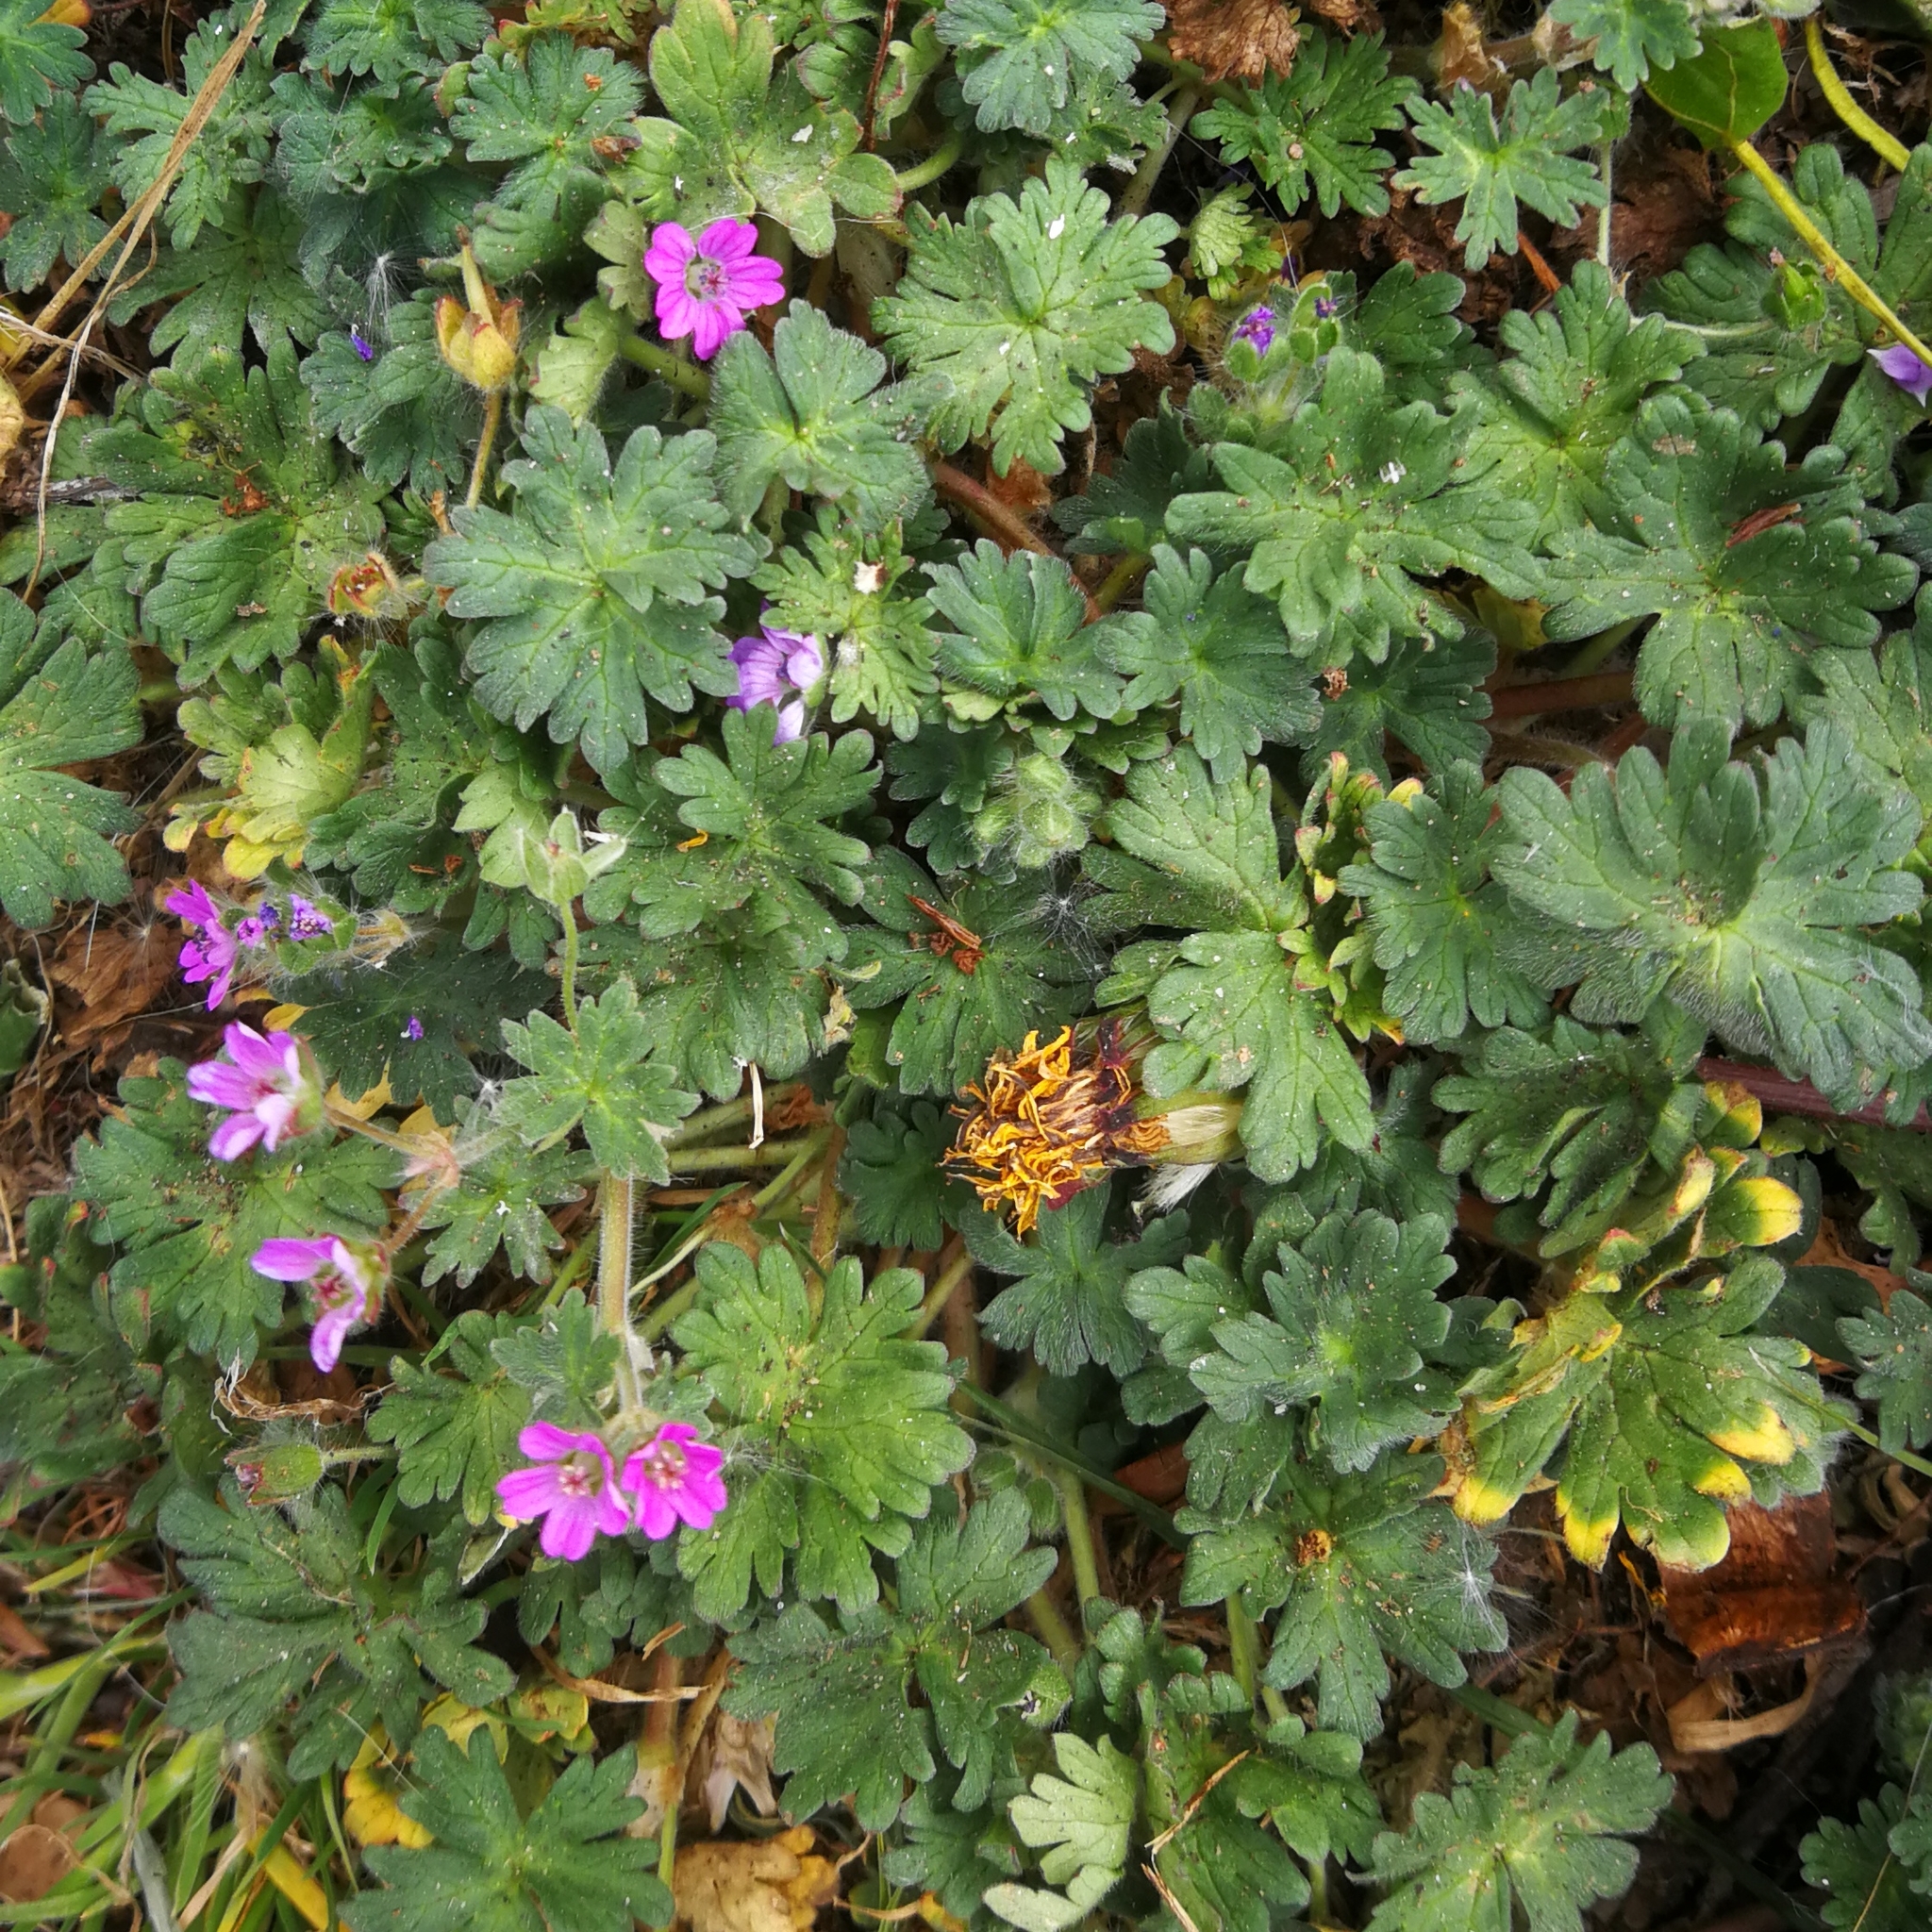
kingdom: Plantae
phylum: Tracheophyta
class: Magnoliopsida
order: Geraniales
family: Geraniaceae
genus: Geranium
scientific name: Geranium molle
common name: Dove's-foot crane's-bill
